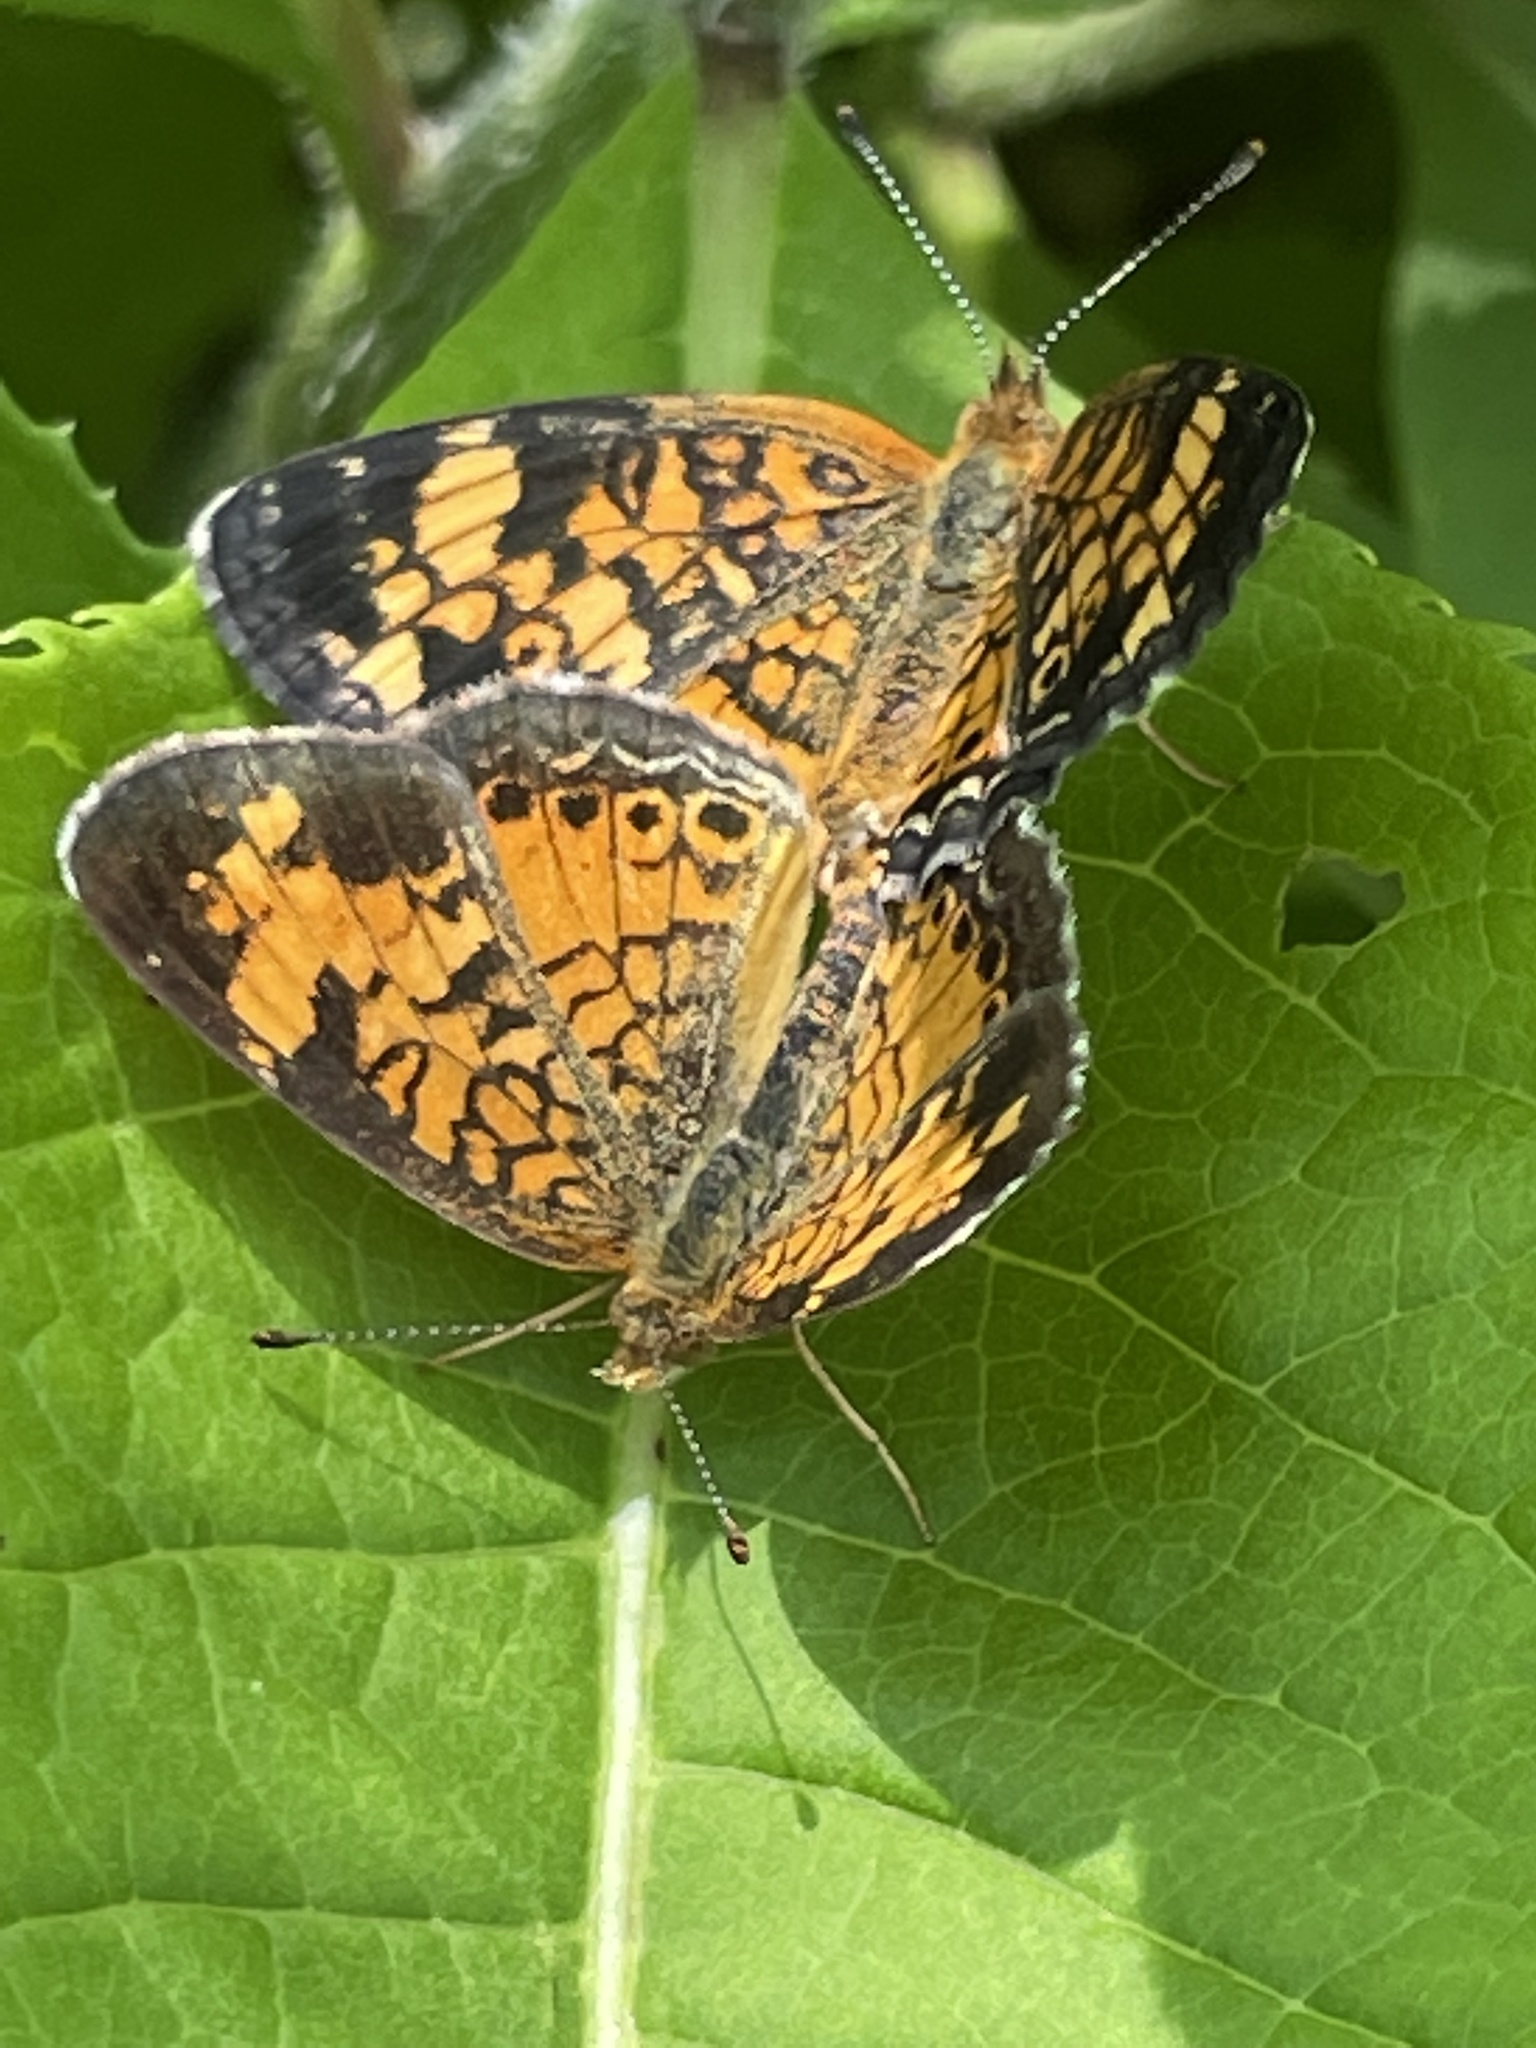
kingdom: Animalia
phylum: Arthropoda
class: Insecta
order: Lepidoptera
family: Nymphalidae
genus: Phyciodes
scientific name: Phyciodes tharos
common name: Pearl crescent
